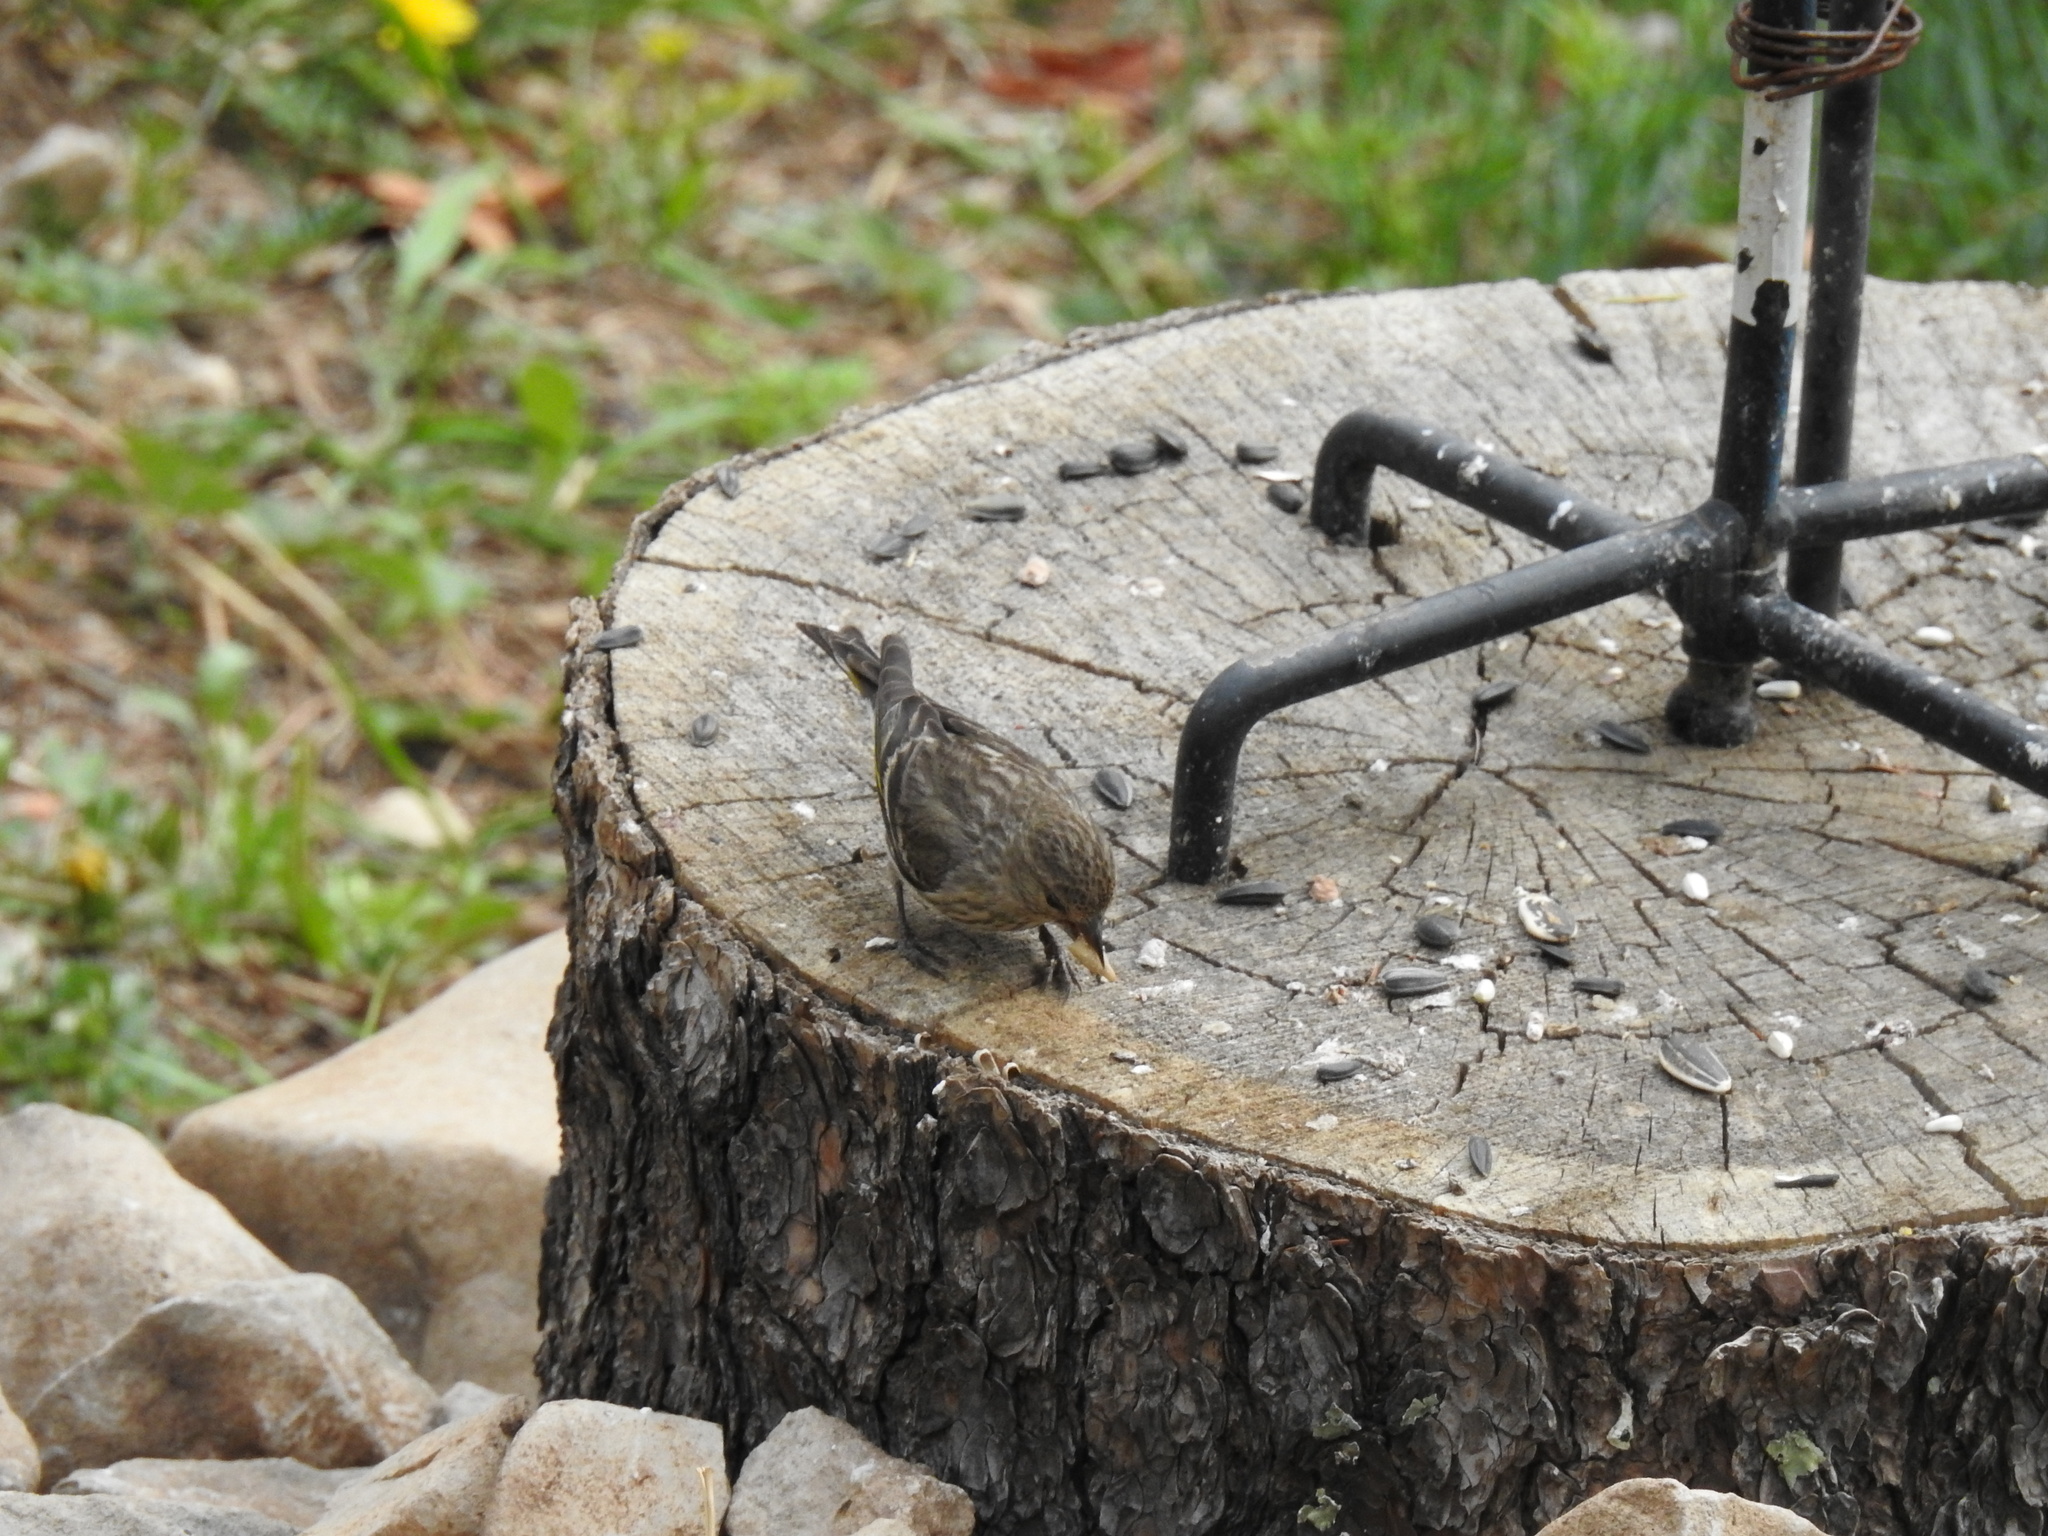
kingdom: Animalia
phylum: Chordata
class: Aves
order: Passeriformes
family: Fringillidae
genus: Spinus
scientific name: Spinus pinus
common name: Pine siskin
